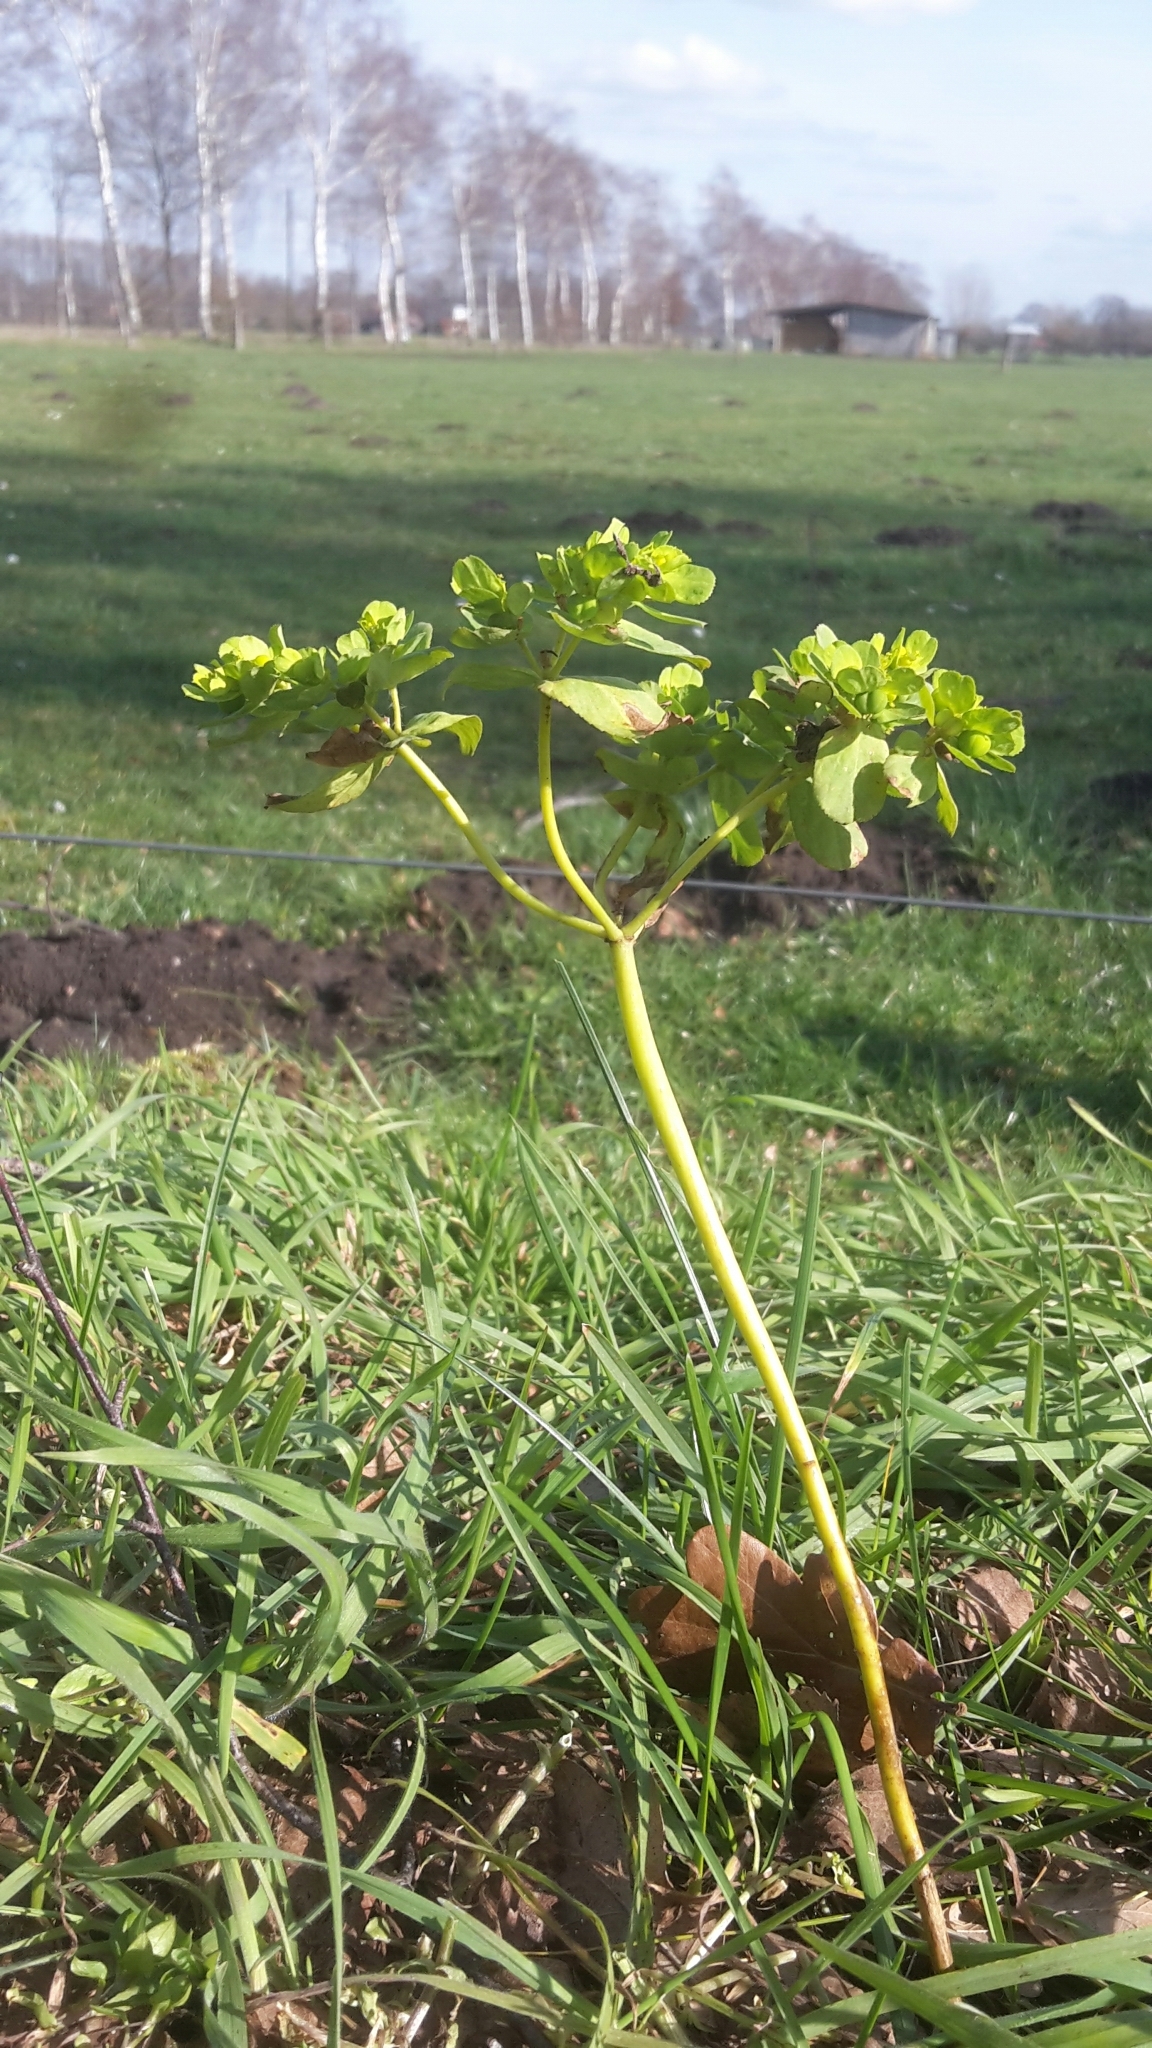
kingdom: Plantae
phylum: Tracheophyta
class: Magnoliopsida
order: Malpighiales
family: Euphorbiaceae
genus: Euphorbia
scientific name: Euphorbia helioscopia
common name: Sun spurge
